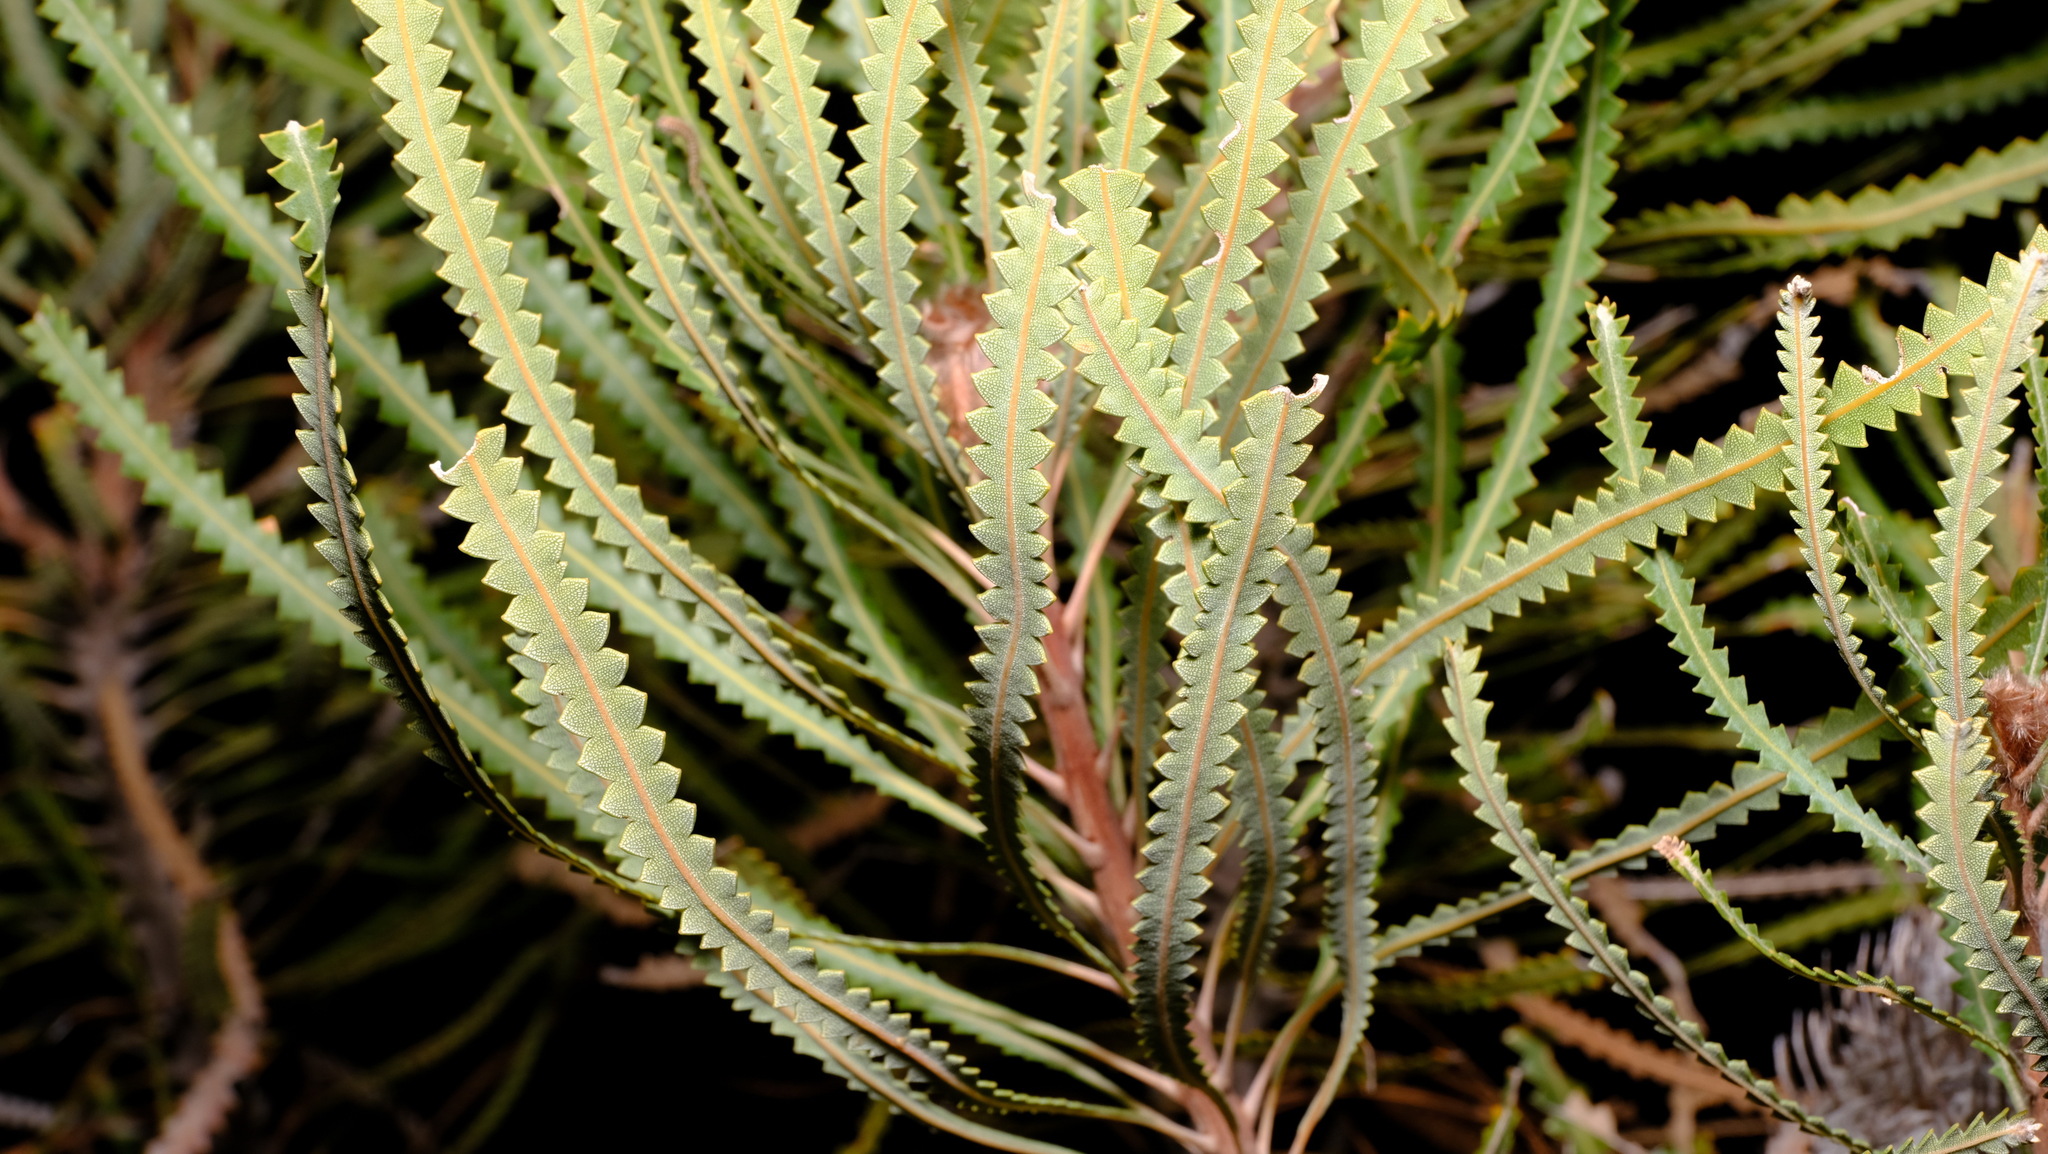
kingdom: Plantae
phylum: Tracheophyta
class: Magnoliopsida
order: Proteales
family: Proteaceae
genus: Banksia
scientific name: Banksia hookeriana
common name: Hooker's banksia
